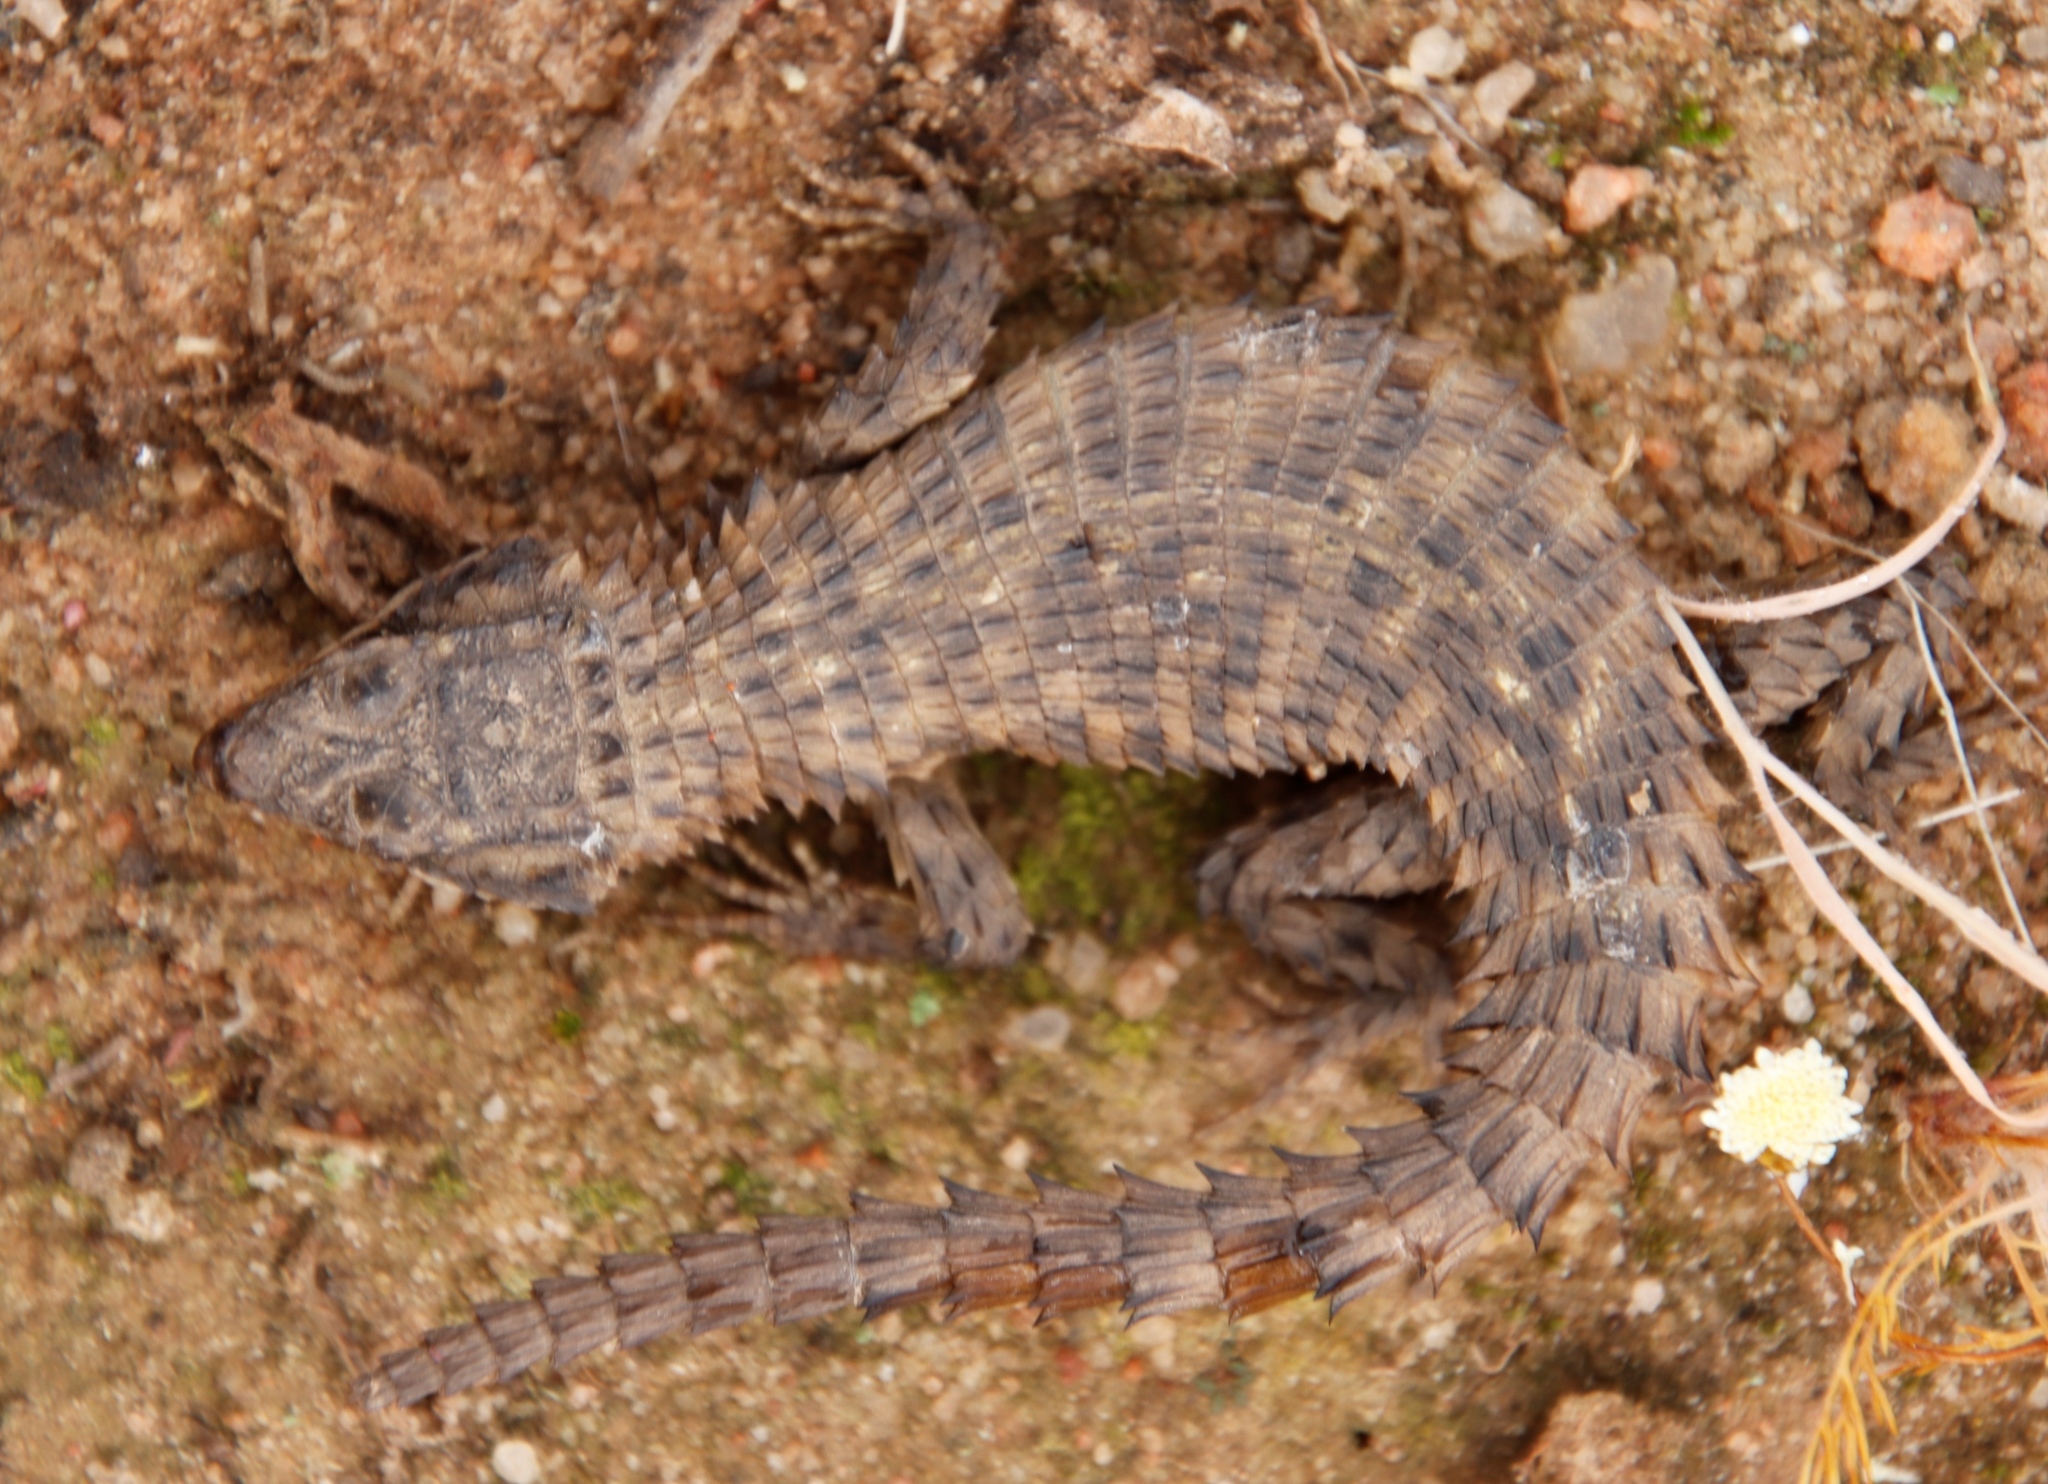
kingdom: Animalia
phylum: Chordata
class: Squamata
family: Cordylidae
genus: Cordylus
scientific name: Cordylus mclachlani
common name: Mclachlan's girdled lizard
